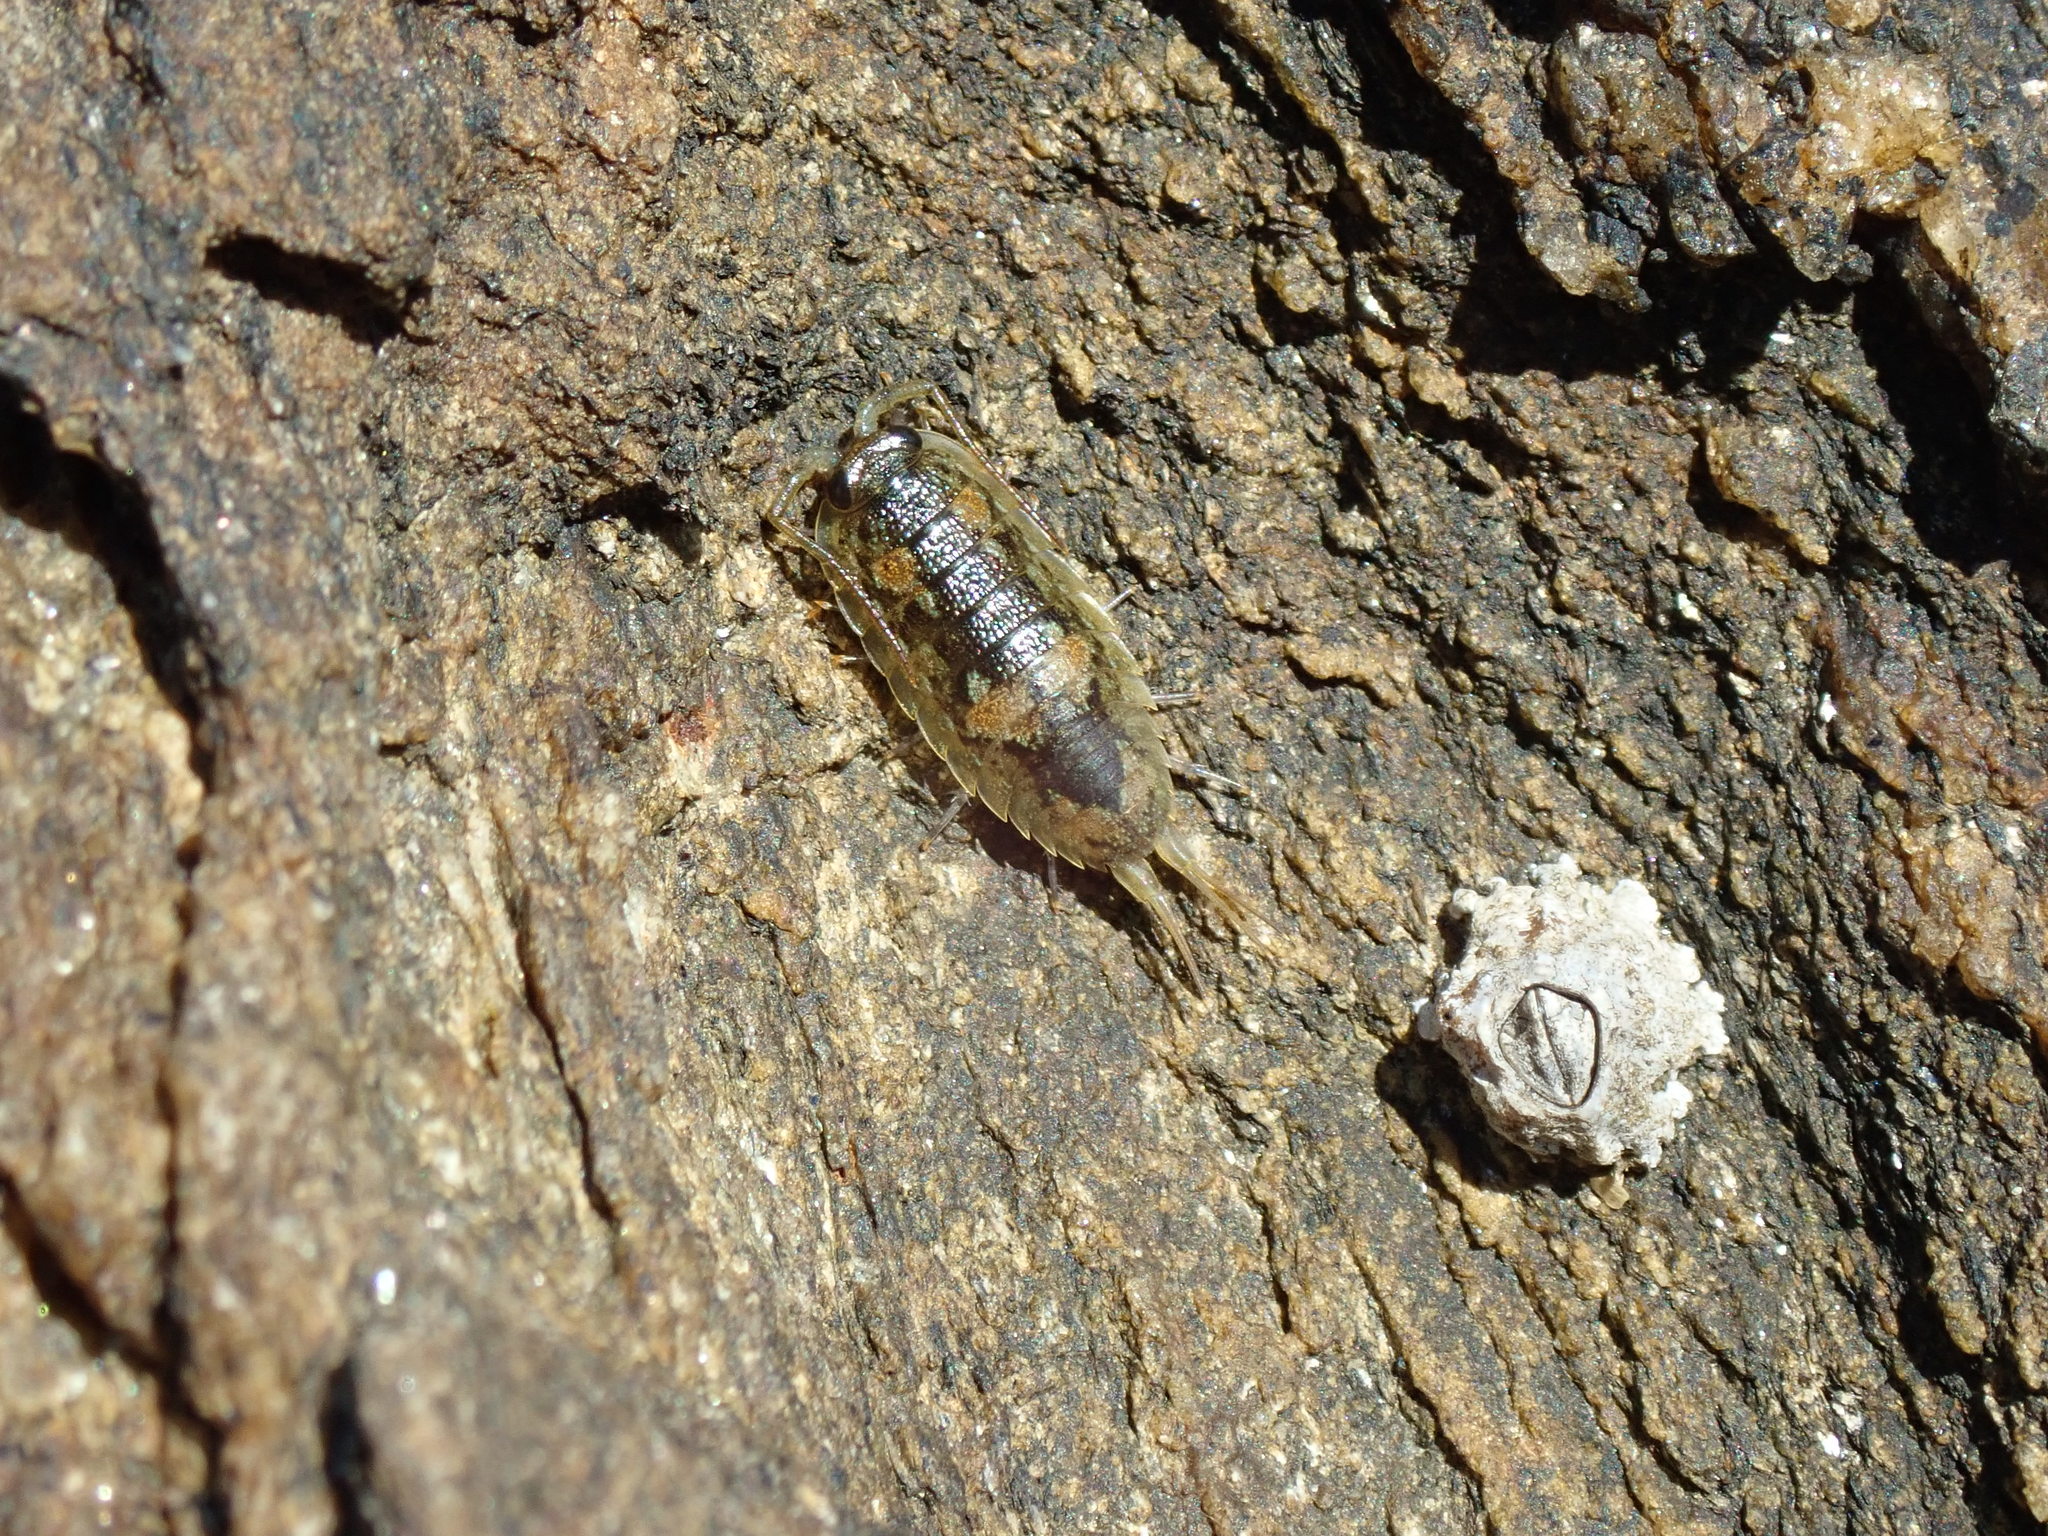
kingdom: Animalia
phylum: Arthropoda
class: Malacostraca
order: Isopoda
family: Ligiidae
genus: Ligia
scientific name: Ligia oceanica
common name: Sea slater
